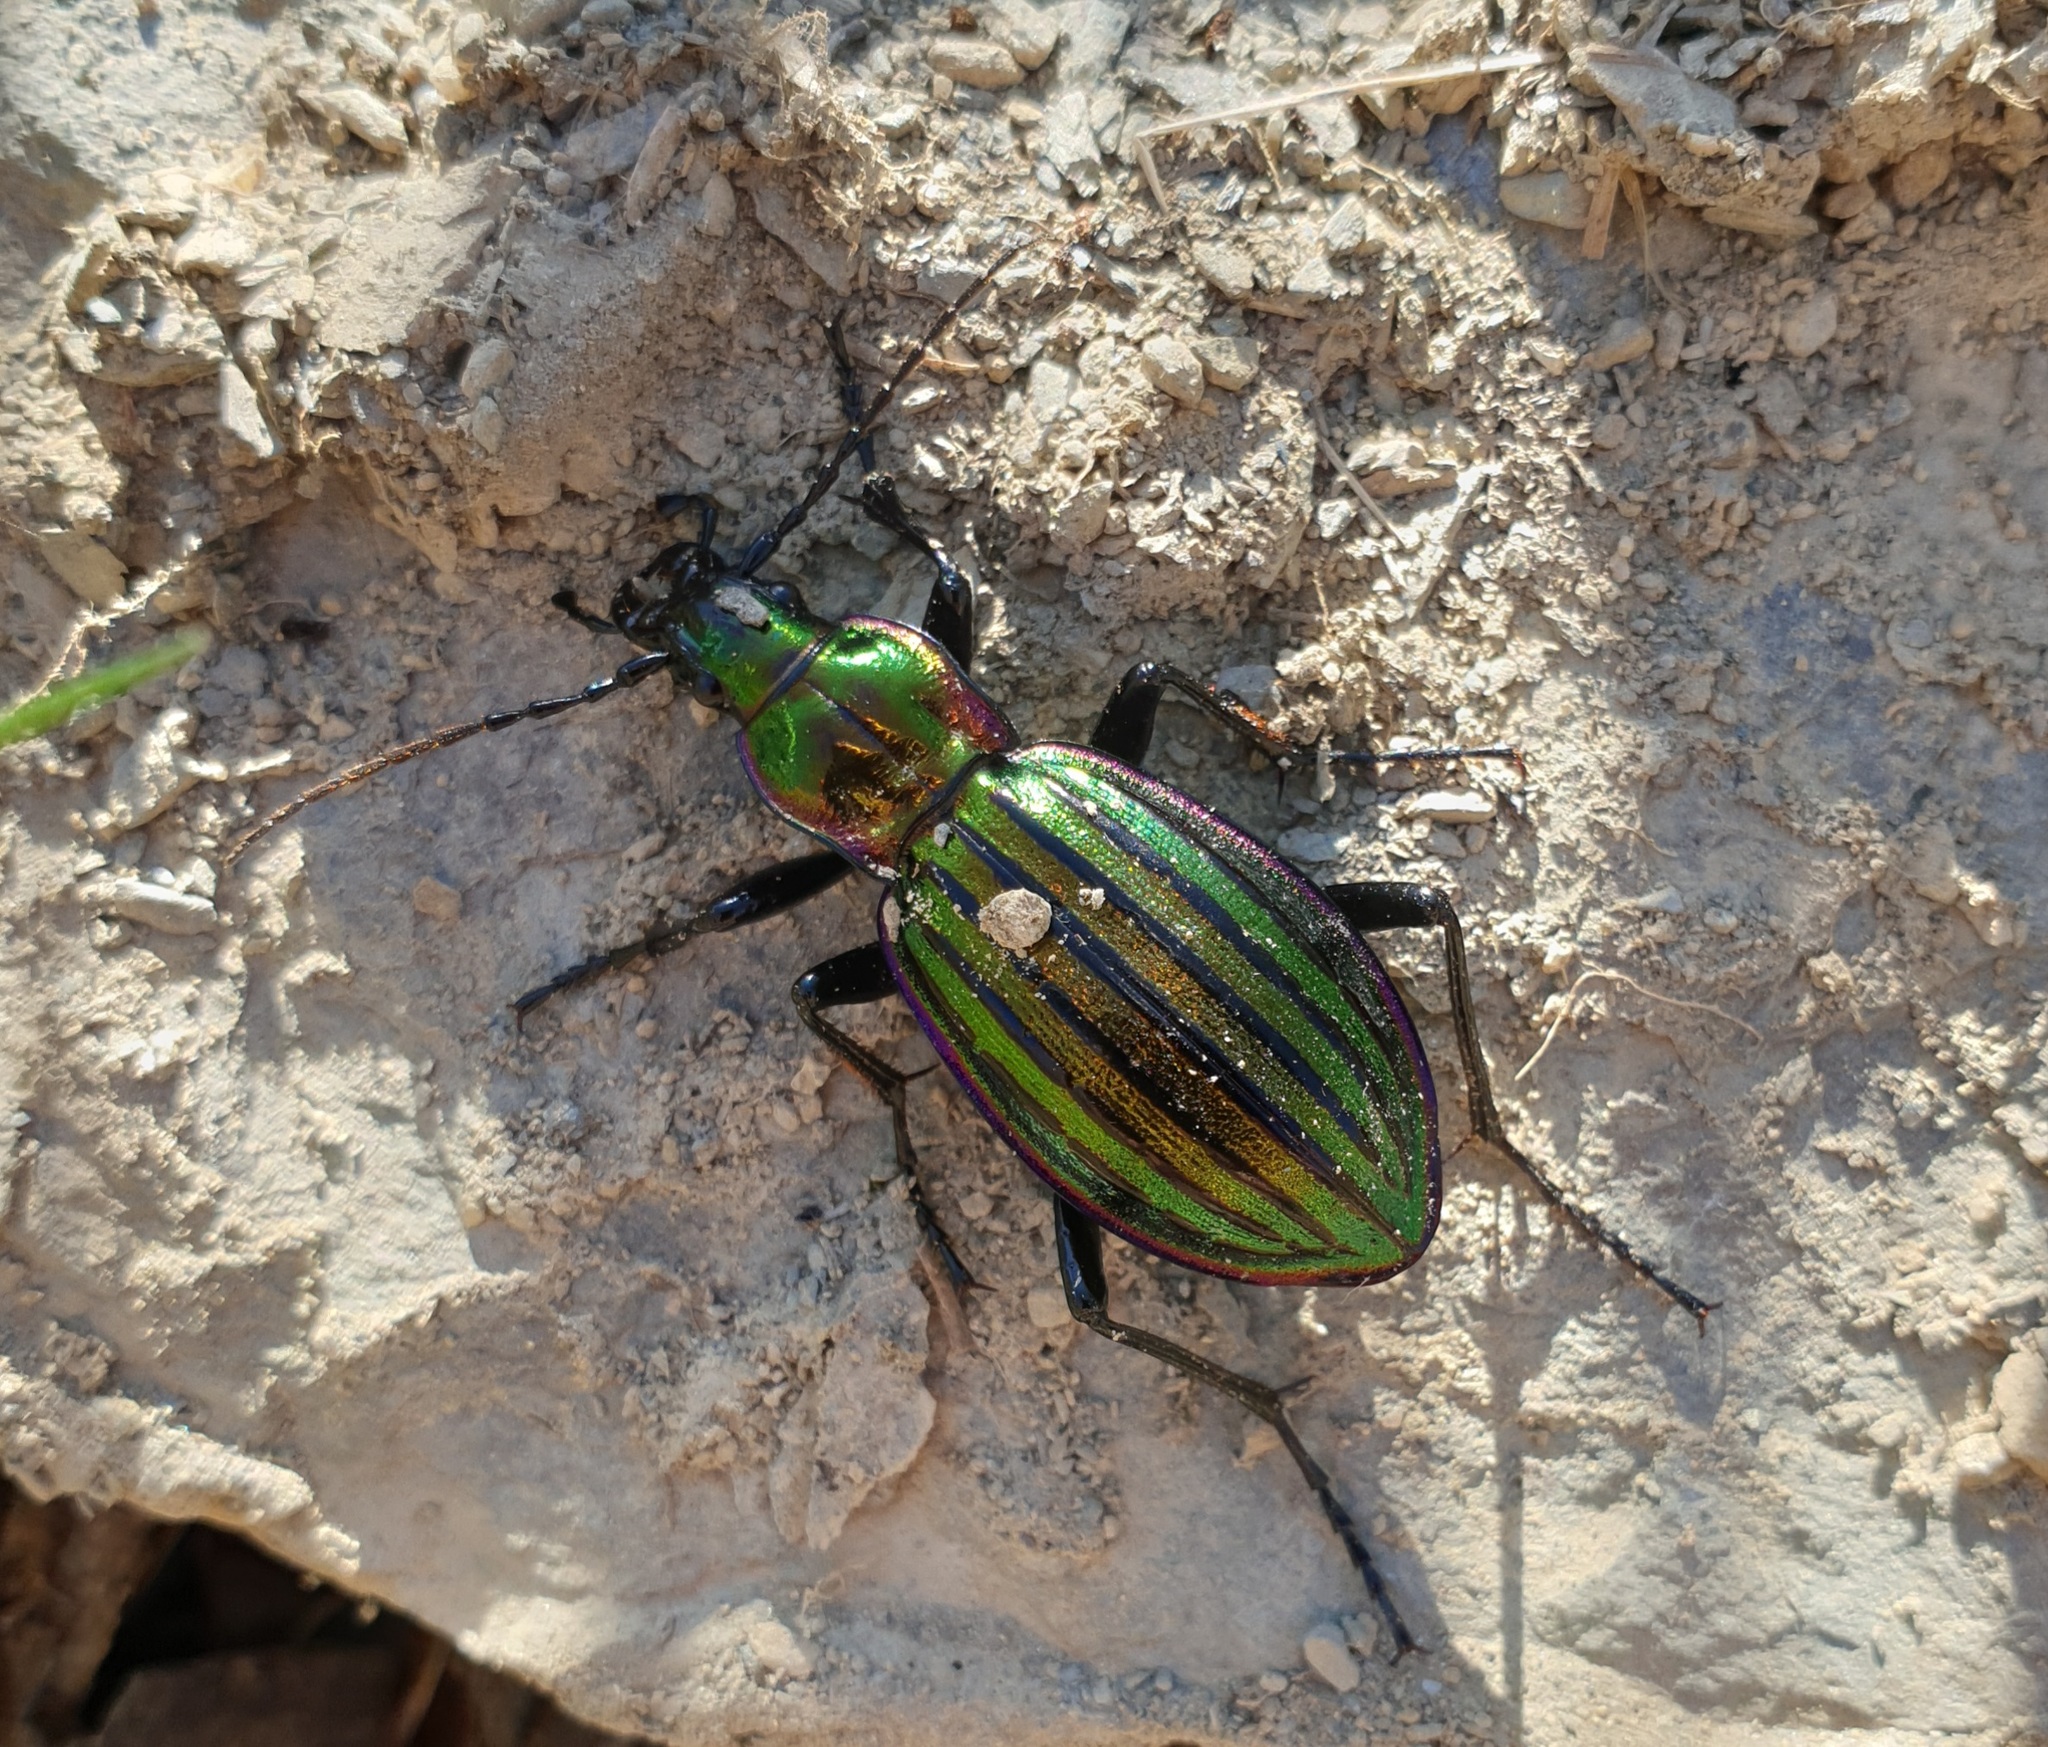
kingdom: Animalia
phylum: Arthropoda
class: Insecta
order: Coleoptera
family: Carabidae
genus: Carabus
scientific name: Carabus solieri
